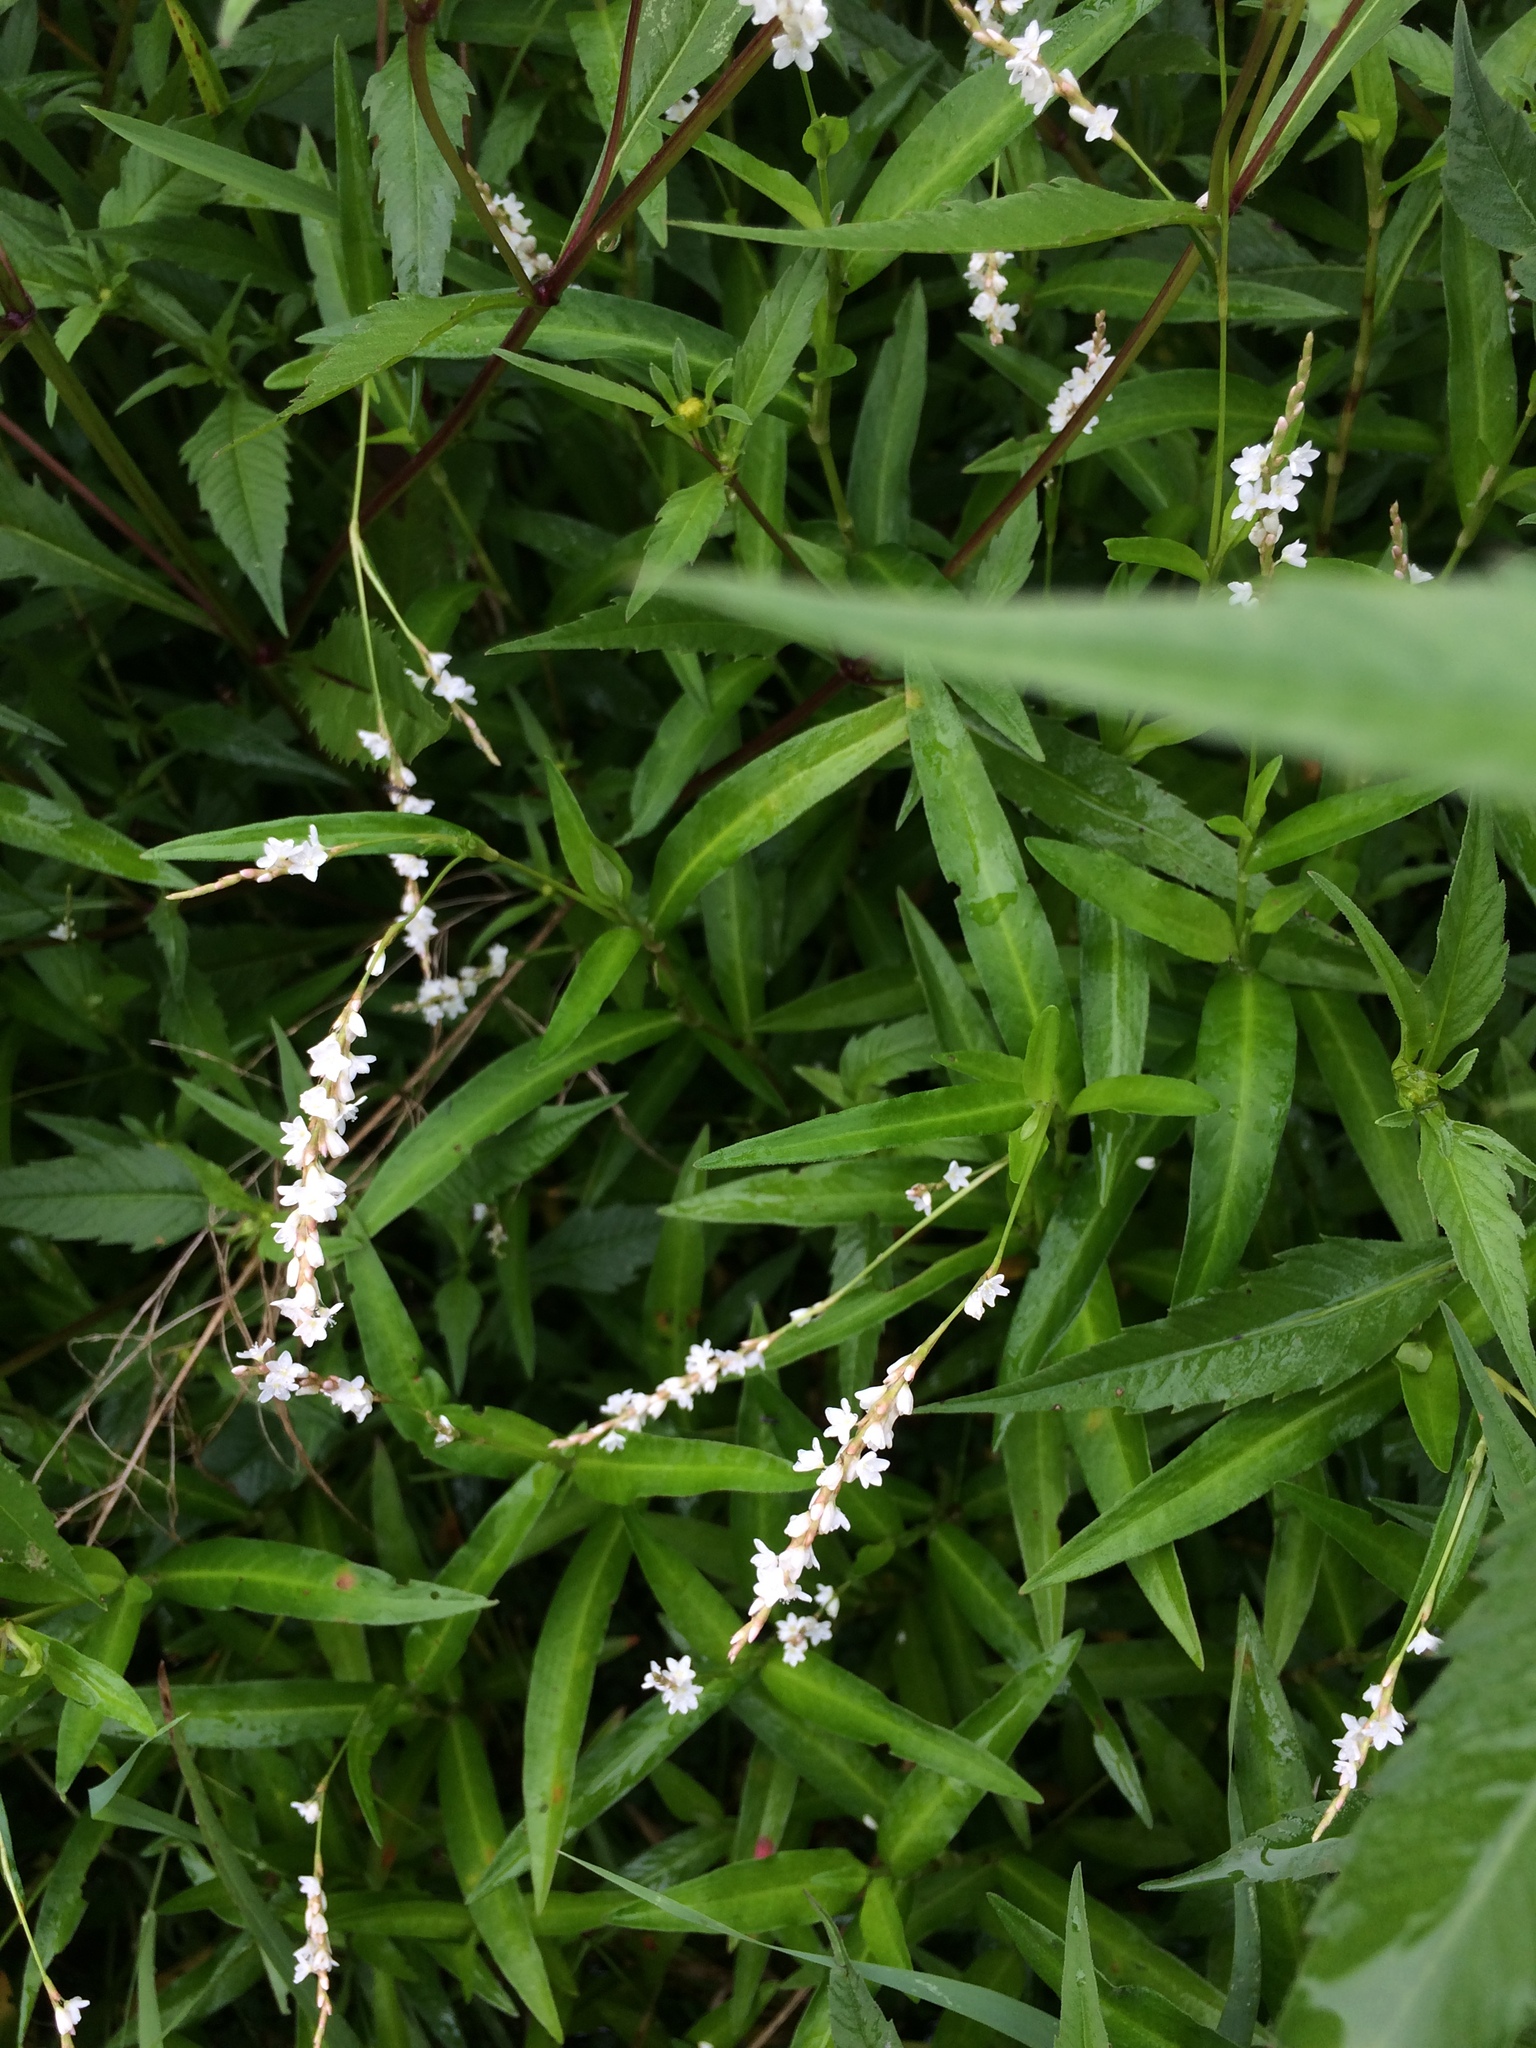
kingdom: Plantae
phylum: Tracheophyta
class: Magnoliopsida
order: Caryophyllales
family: Polygonaceae
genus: Persicaria
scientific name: Persicaria hydropiperoides
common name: Swamp smartweed
